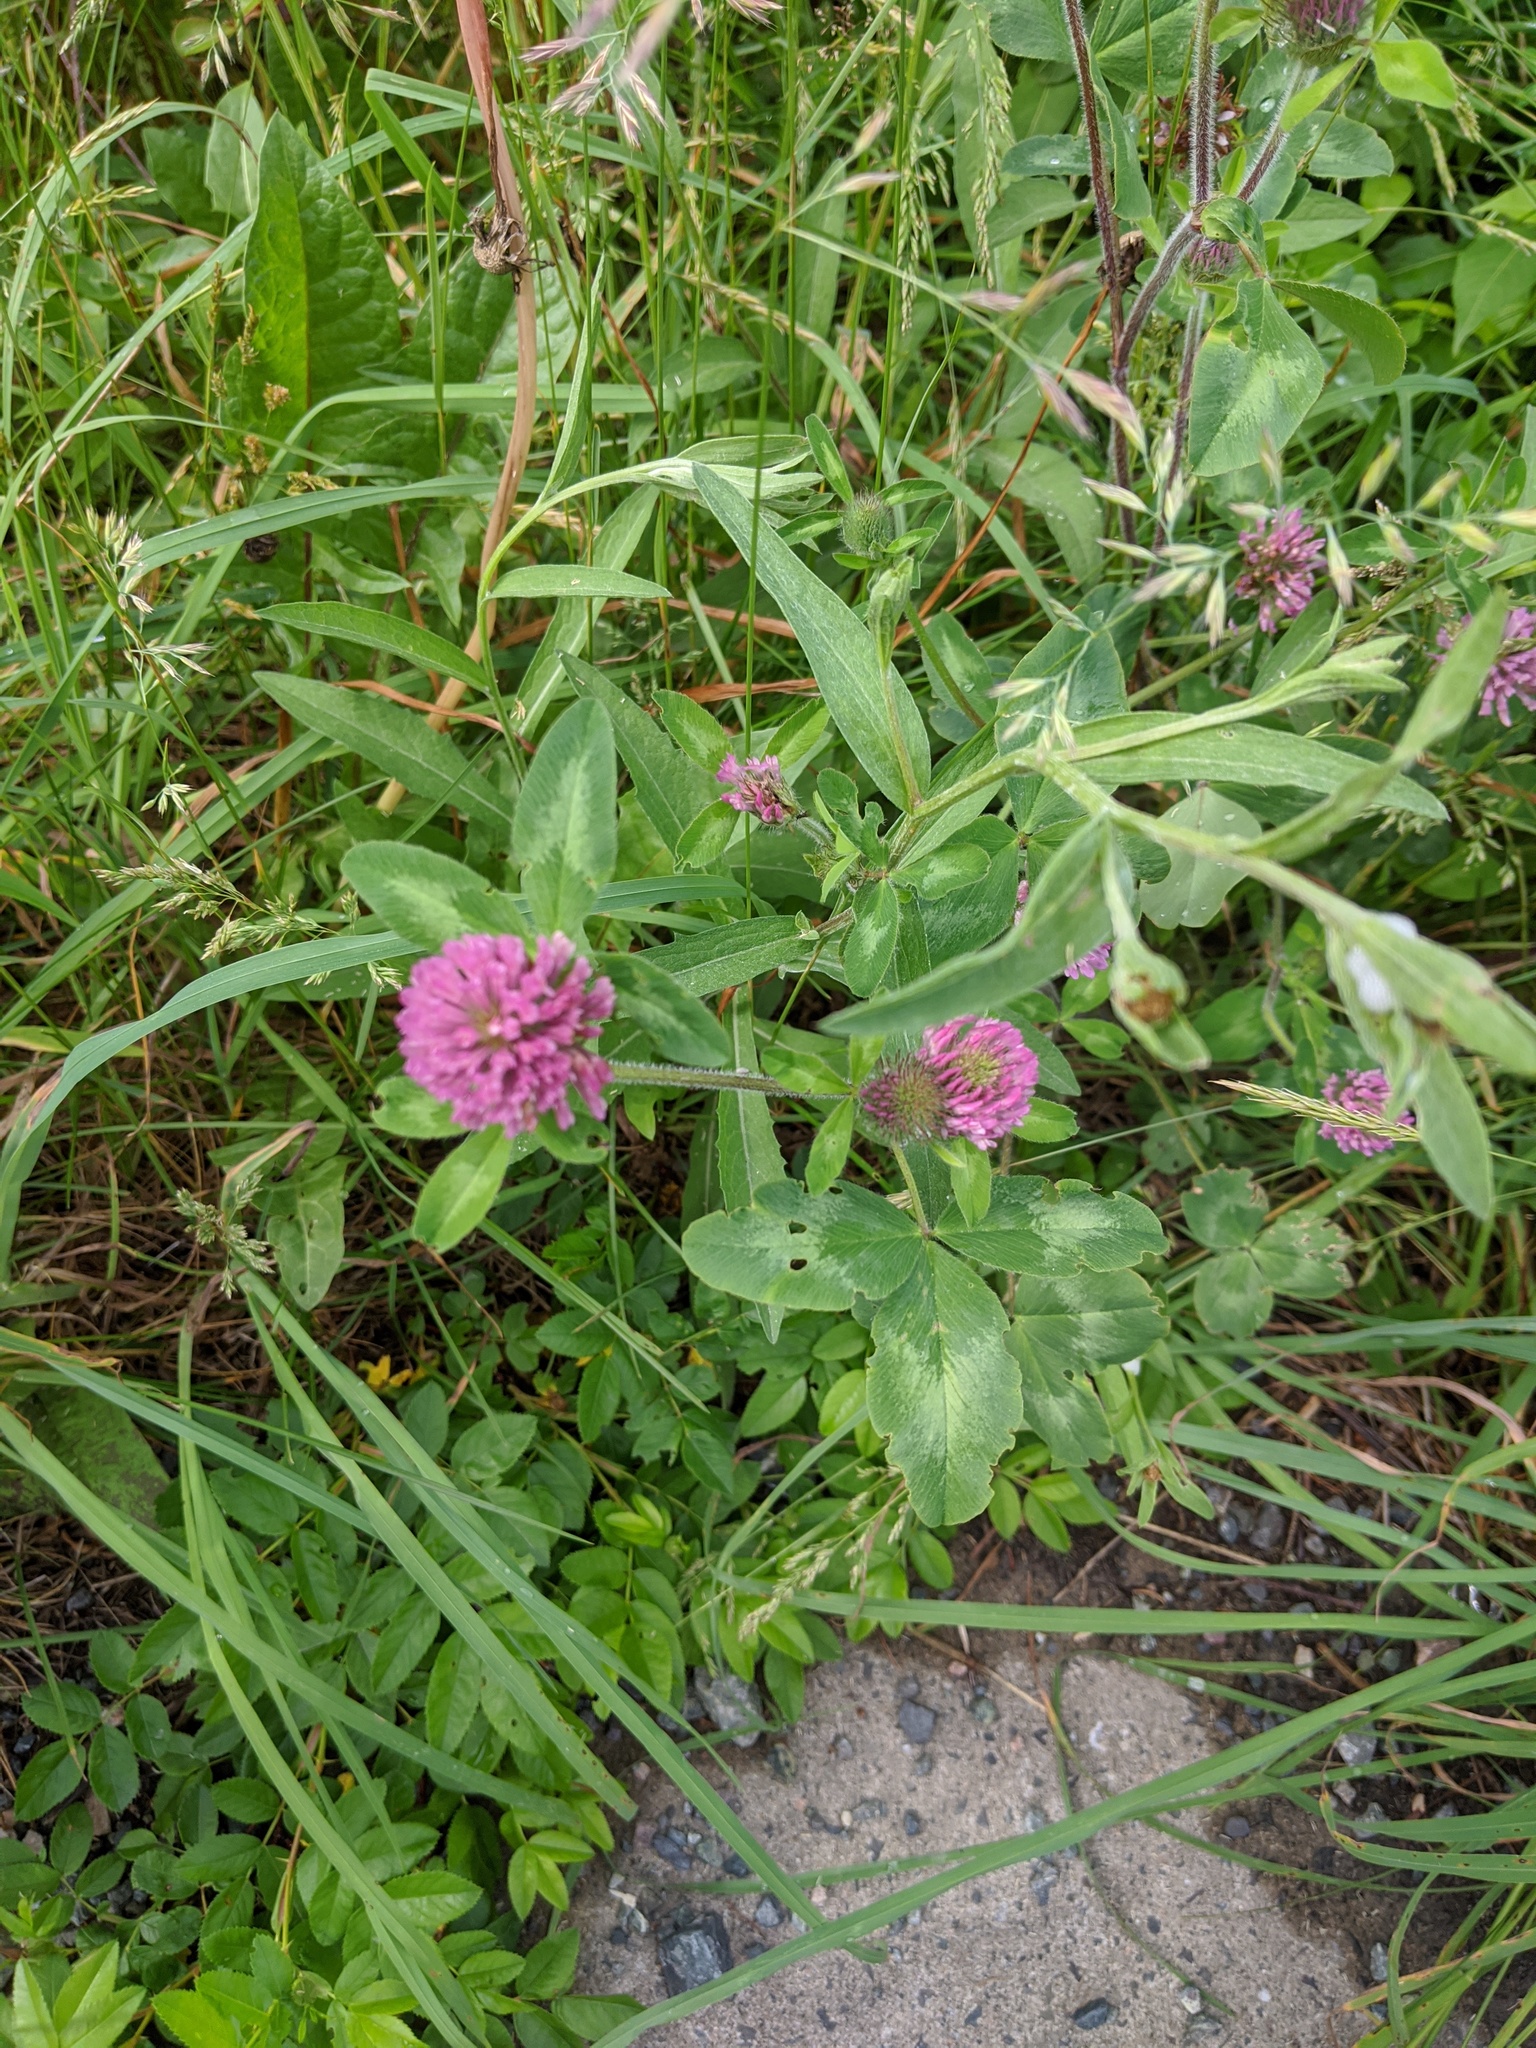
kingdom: Plantae
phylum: Tracheophyta
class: Magnoliopsida
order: Fabales
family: Fabaceae
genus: Trifolium
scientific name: Trifolium pratense
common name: Red clover
